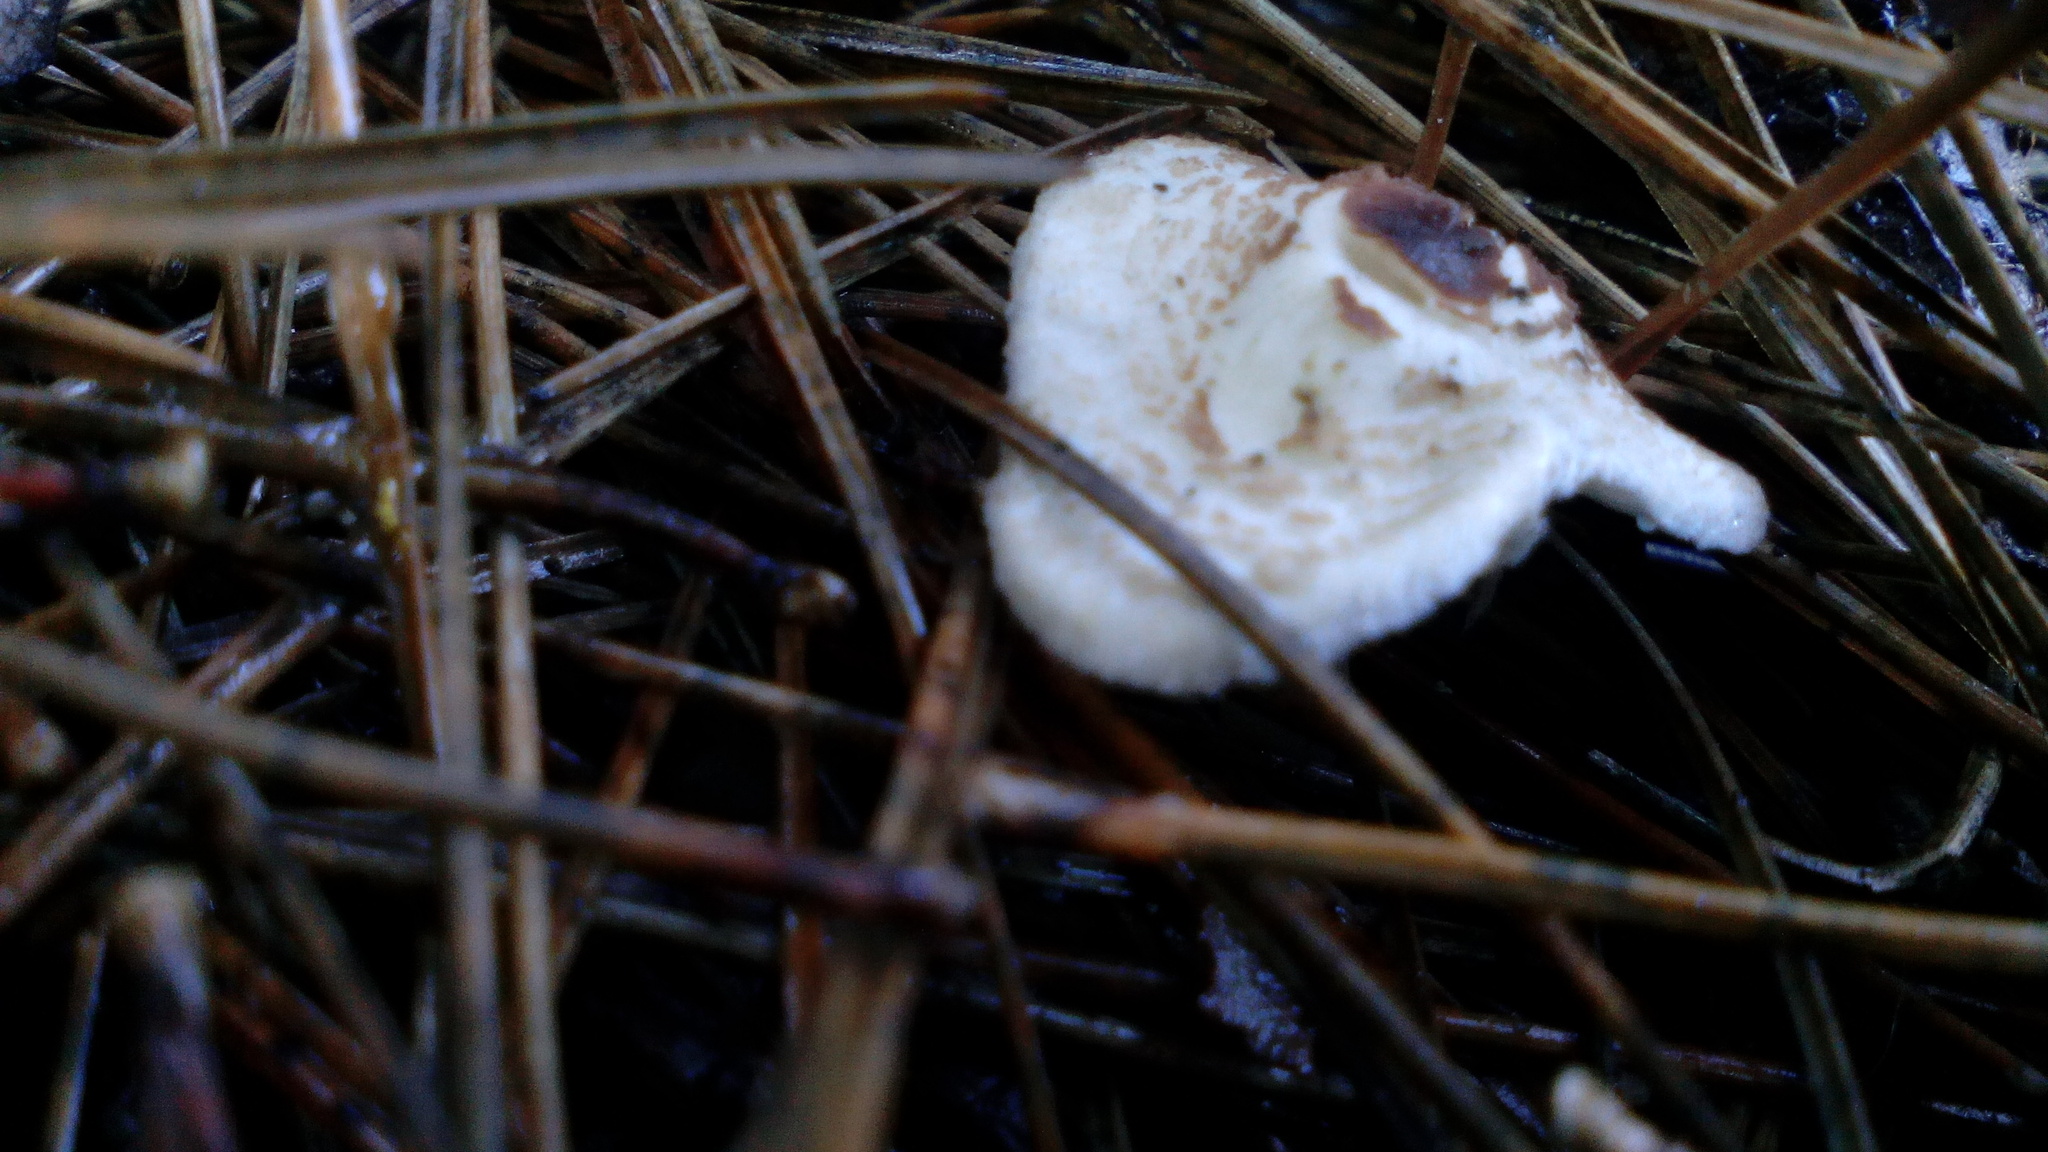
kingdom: Fungi
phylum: Basidiomycota
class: Agaricomycetes
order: Agaricales
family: Agaricaceae
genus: Lepiota
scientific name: Lepiota cristata
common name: Stinking dapperling
